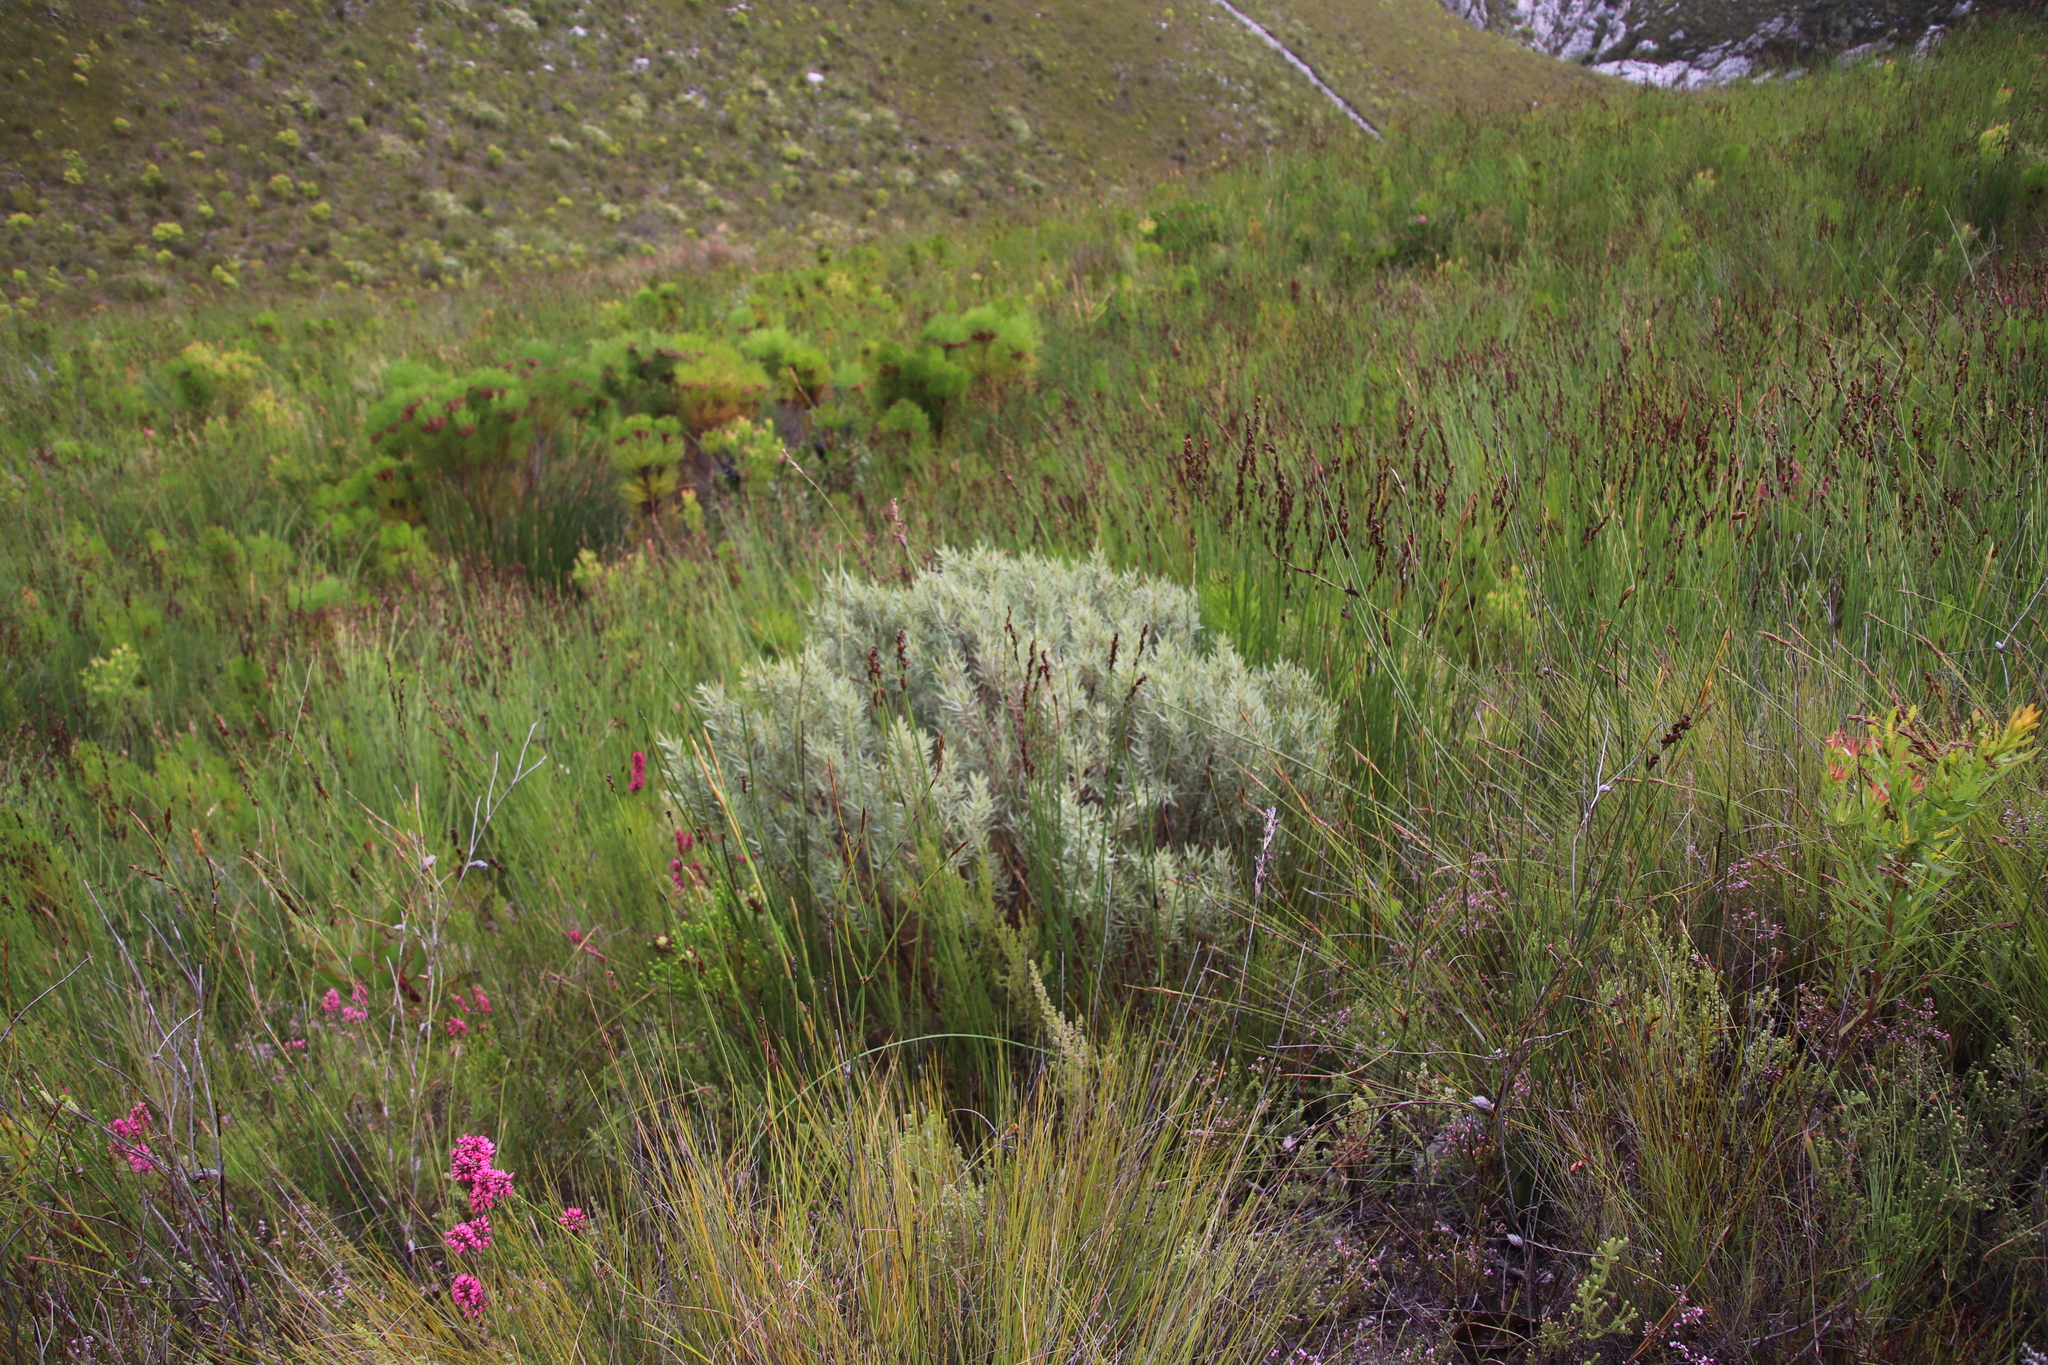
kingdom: Plantae
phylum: Tracheophyta
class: Magnoliopsida
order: Cornales
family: Grubbiaceae
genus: Grubbia
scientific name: Grubbia tomentosa
